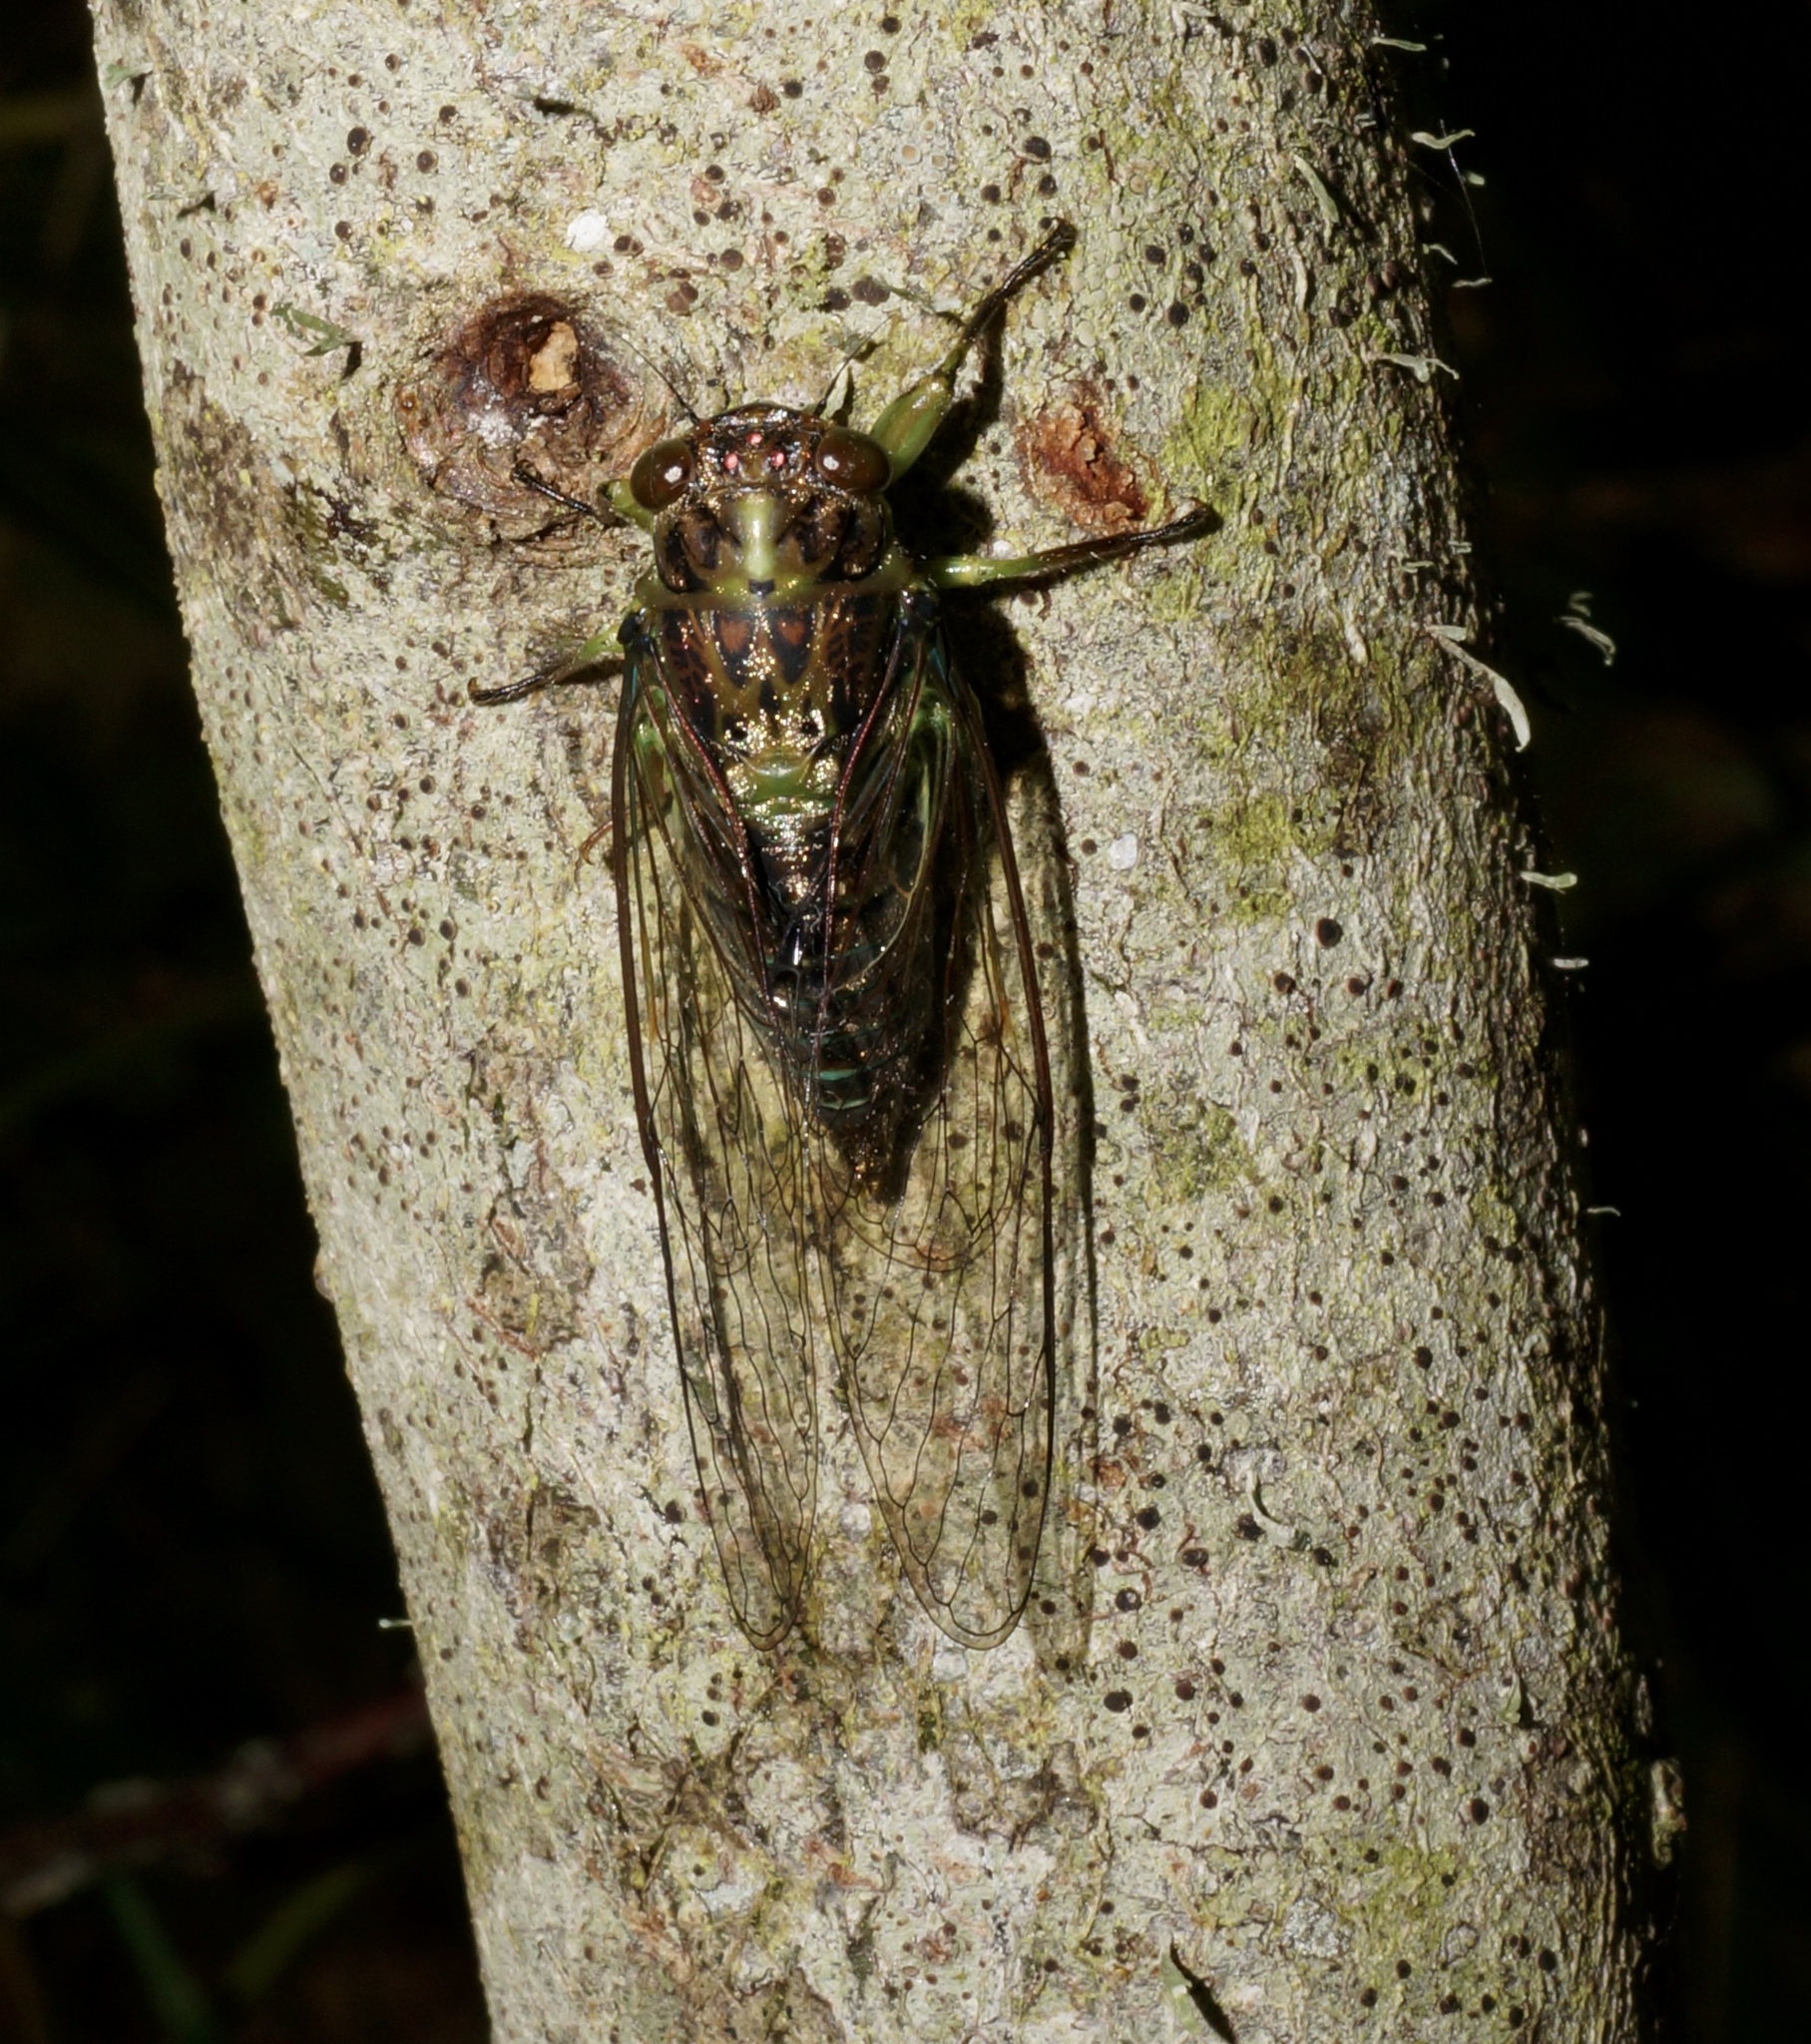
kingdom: Animalia
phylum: Arthropoda
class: Insecta
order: Hemiptera
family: Cicadidae
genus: Kikihia
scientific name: Kikihia scutellaris
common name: Lesser bronze cicada
